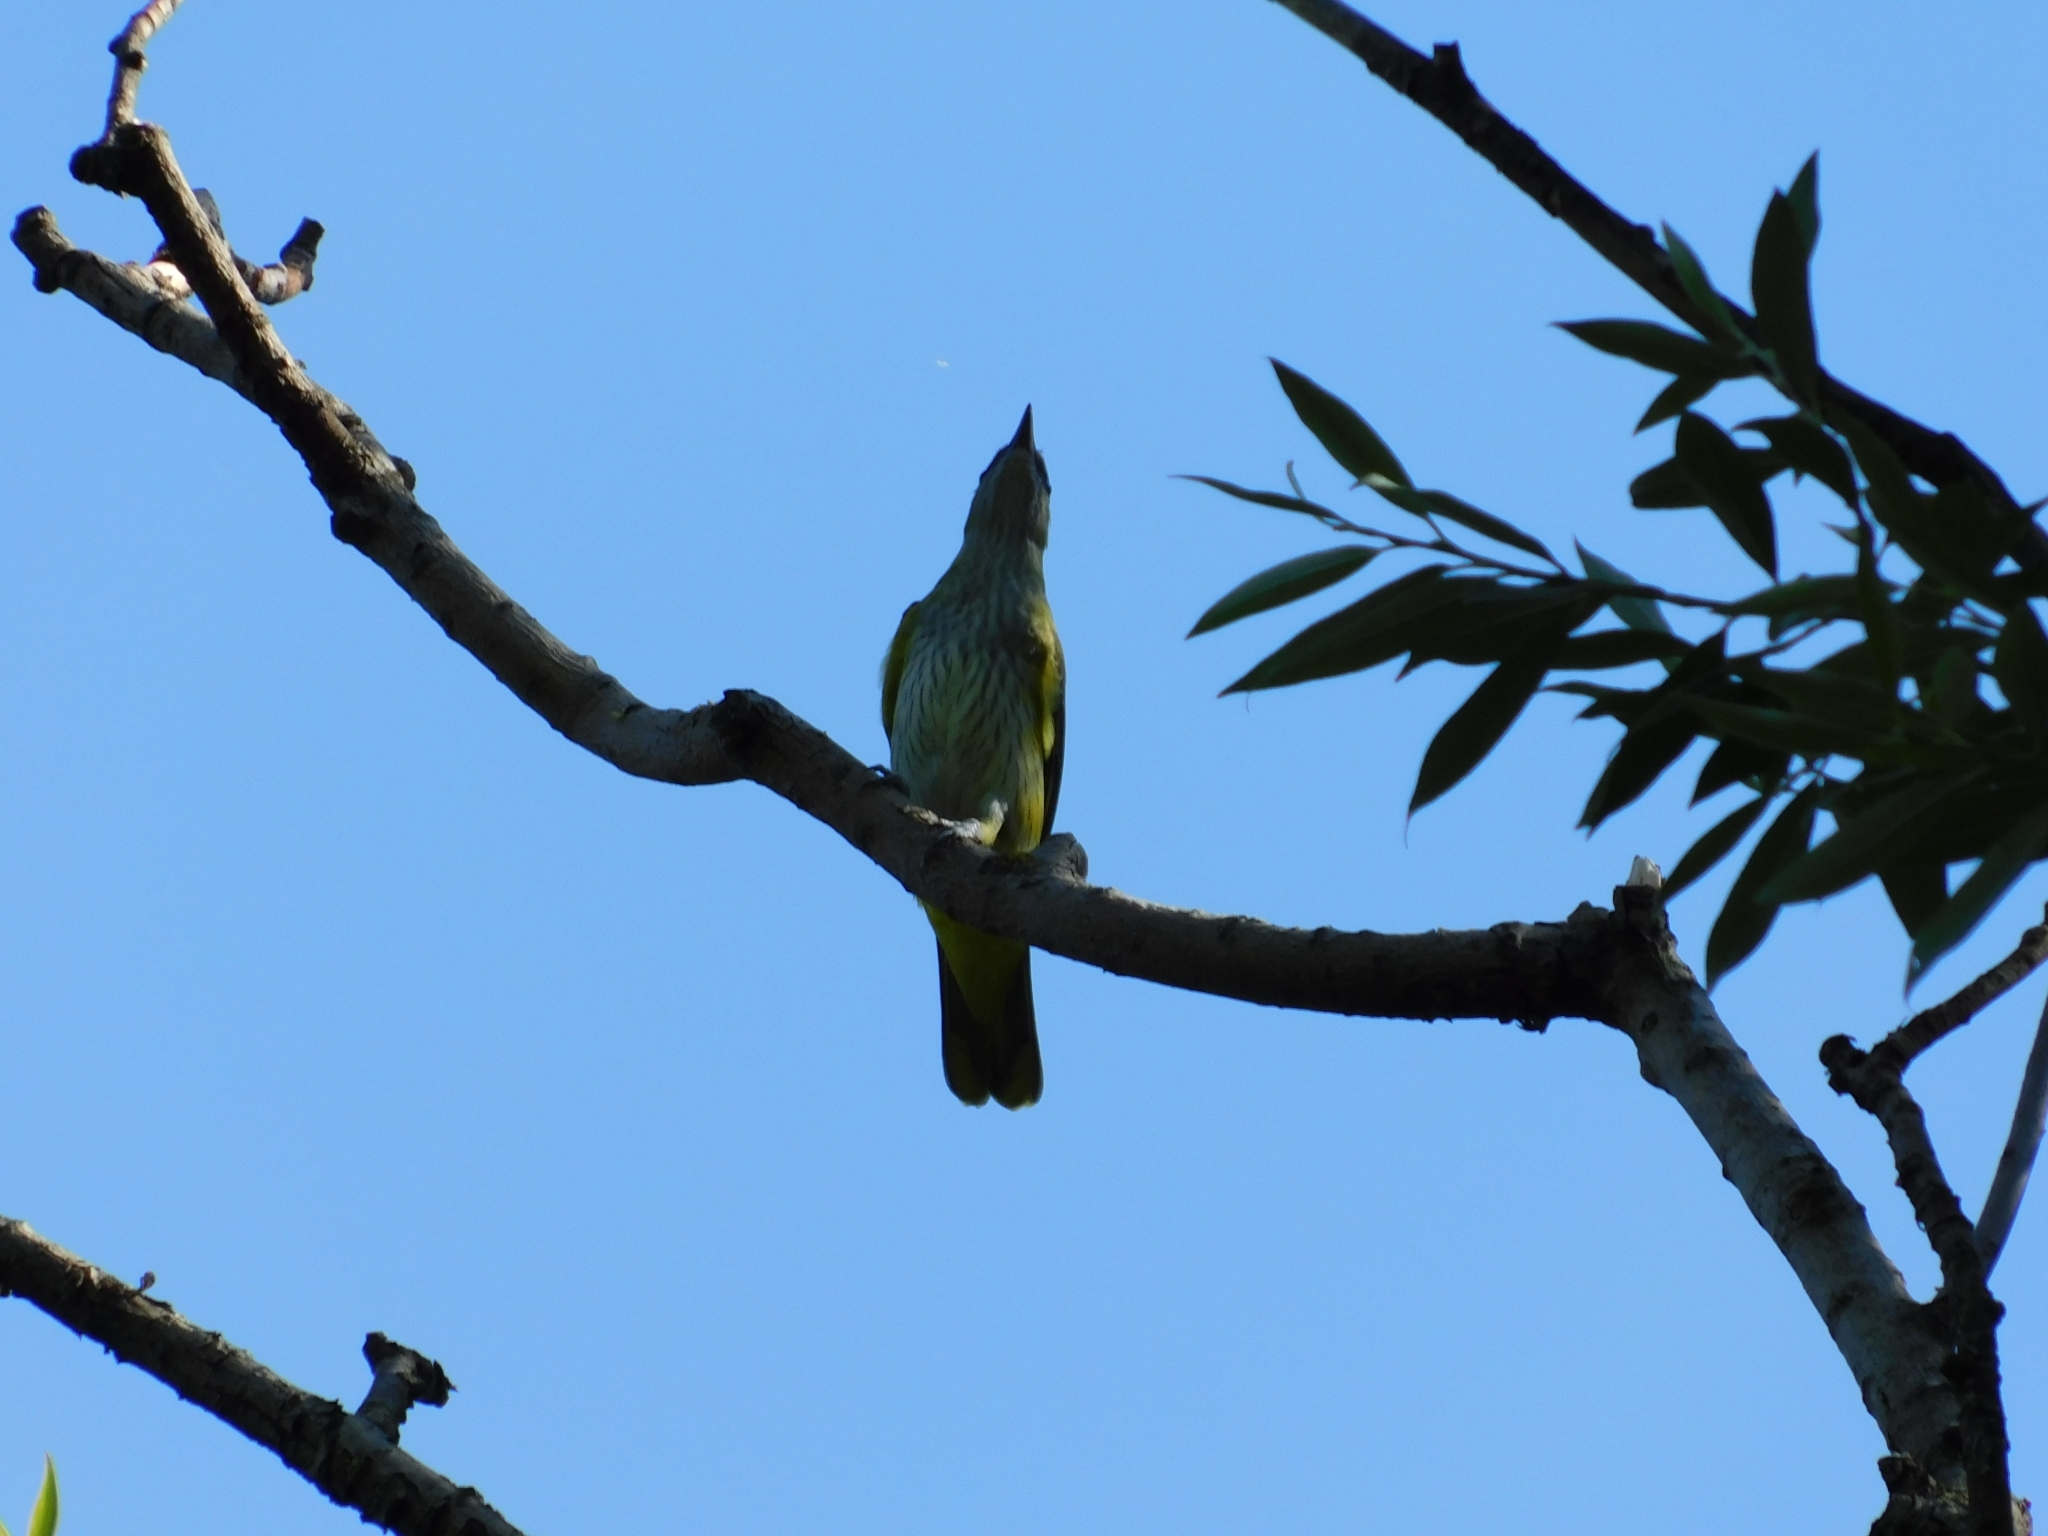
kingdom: Animalia
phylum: Chordata
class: Aves
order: Passeriformes
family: Oriolidae
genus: Oriolus
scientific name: Oriolus oriolus
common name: Eurasian golden oriole
